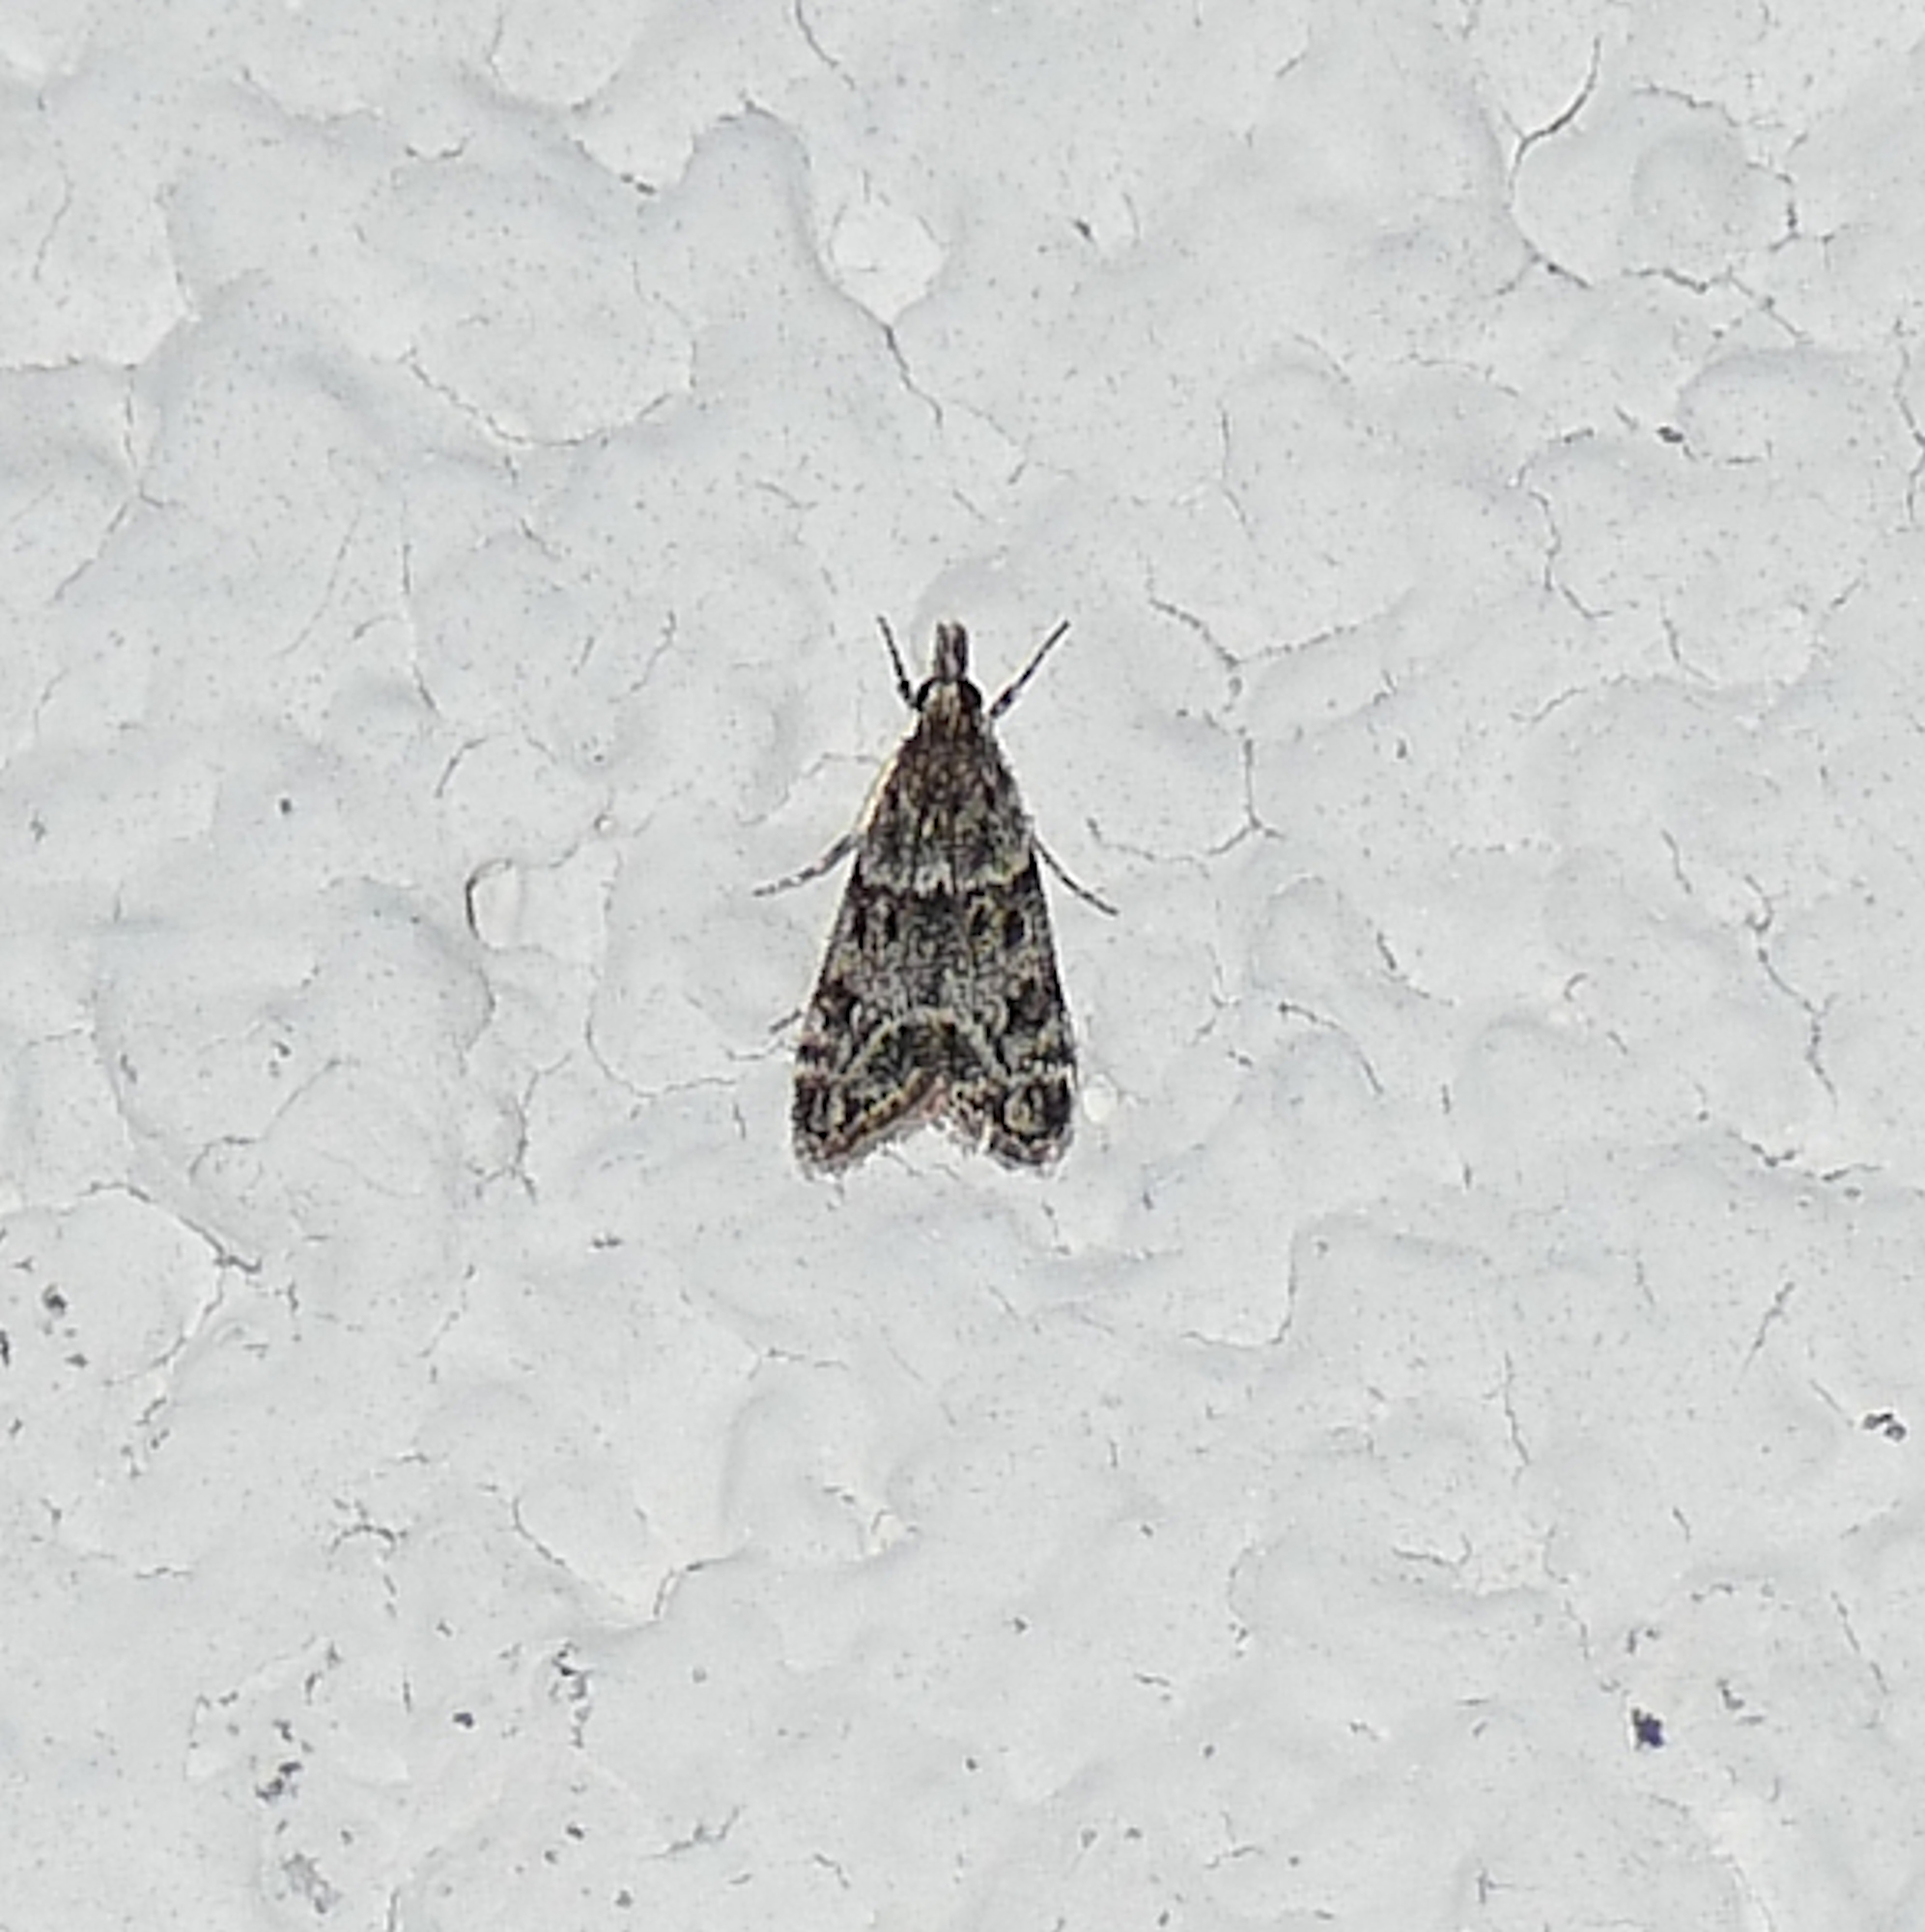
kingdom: Animalia
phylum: Arthropoda
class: Insecta
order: Lepidoptera
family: Crambidae
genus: Eudonia
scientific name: Eudonia heterosalis
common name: Mcdunnough's eudonia
